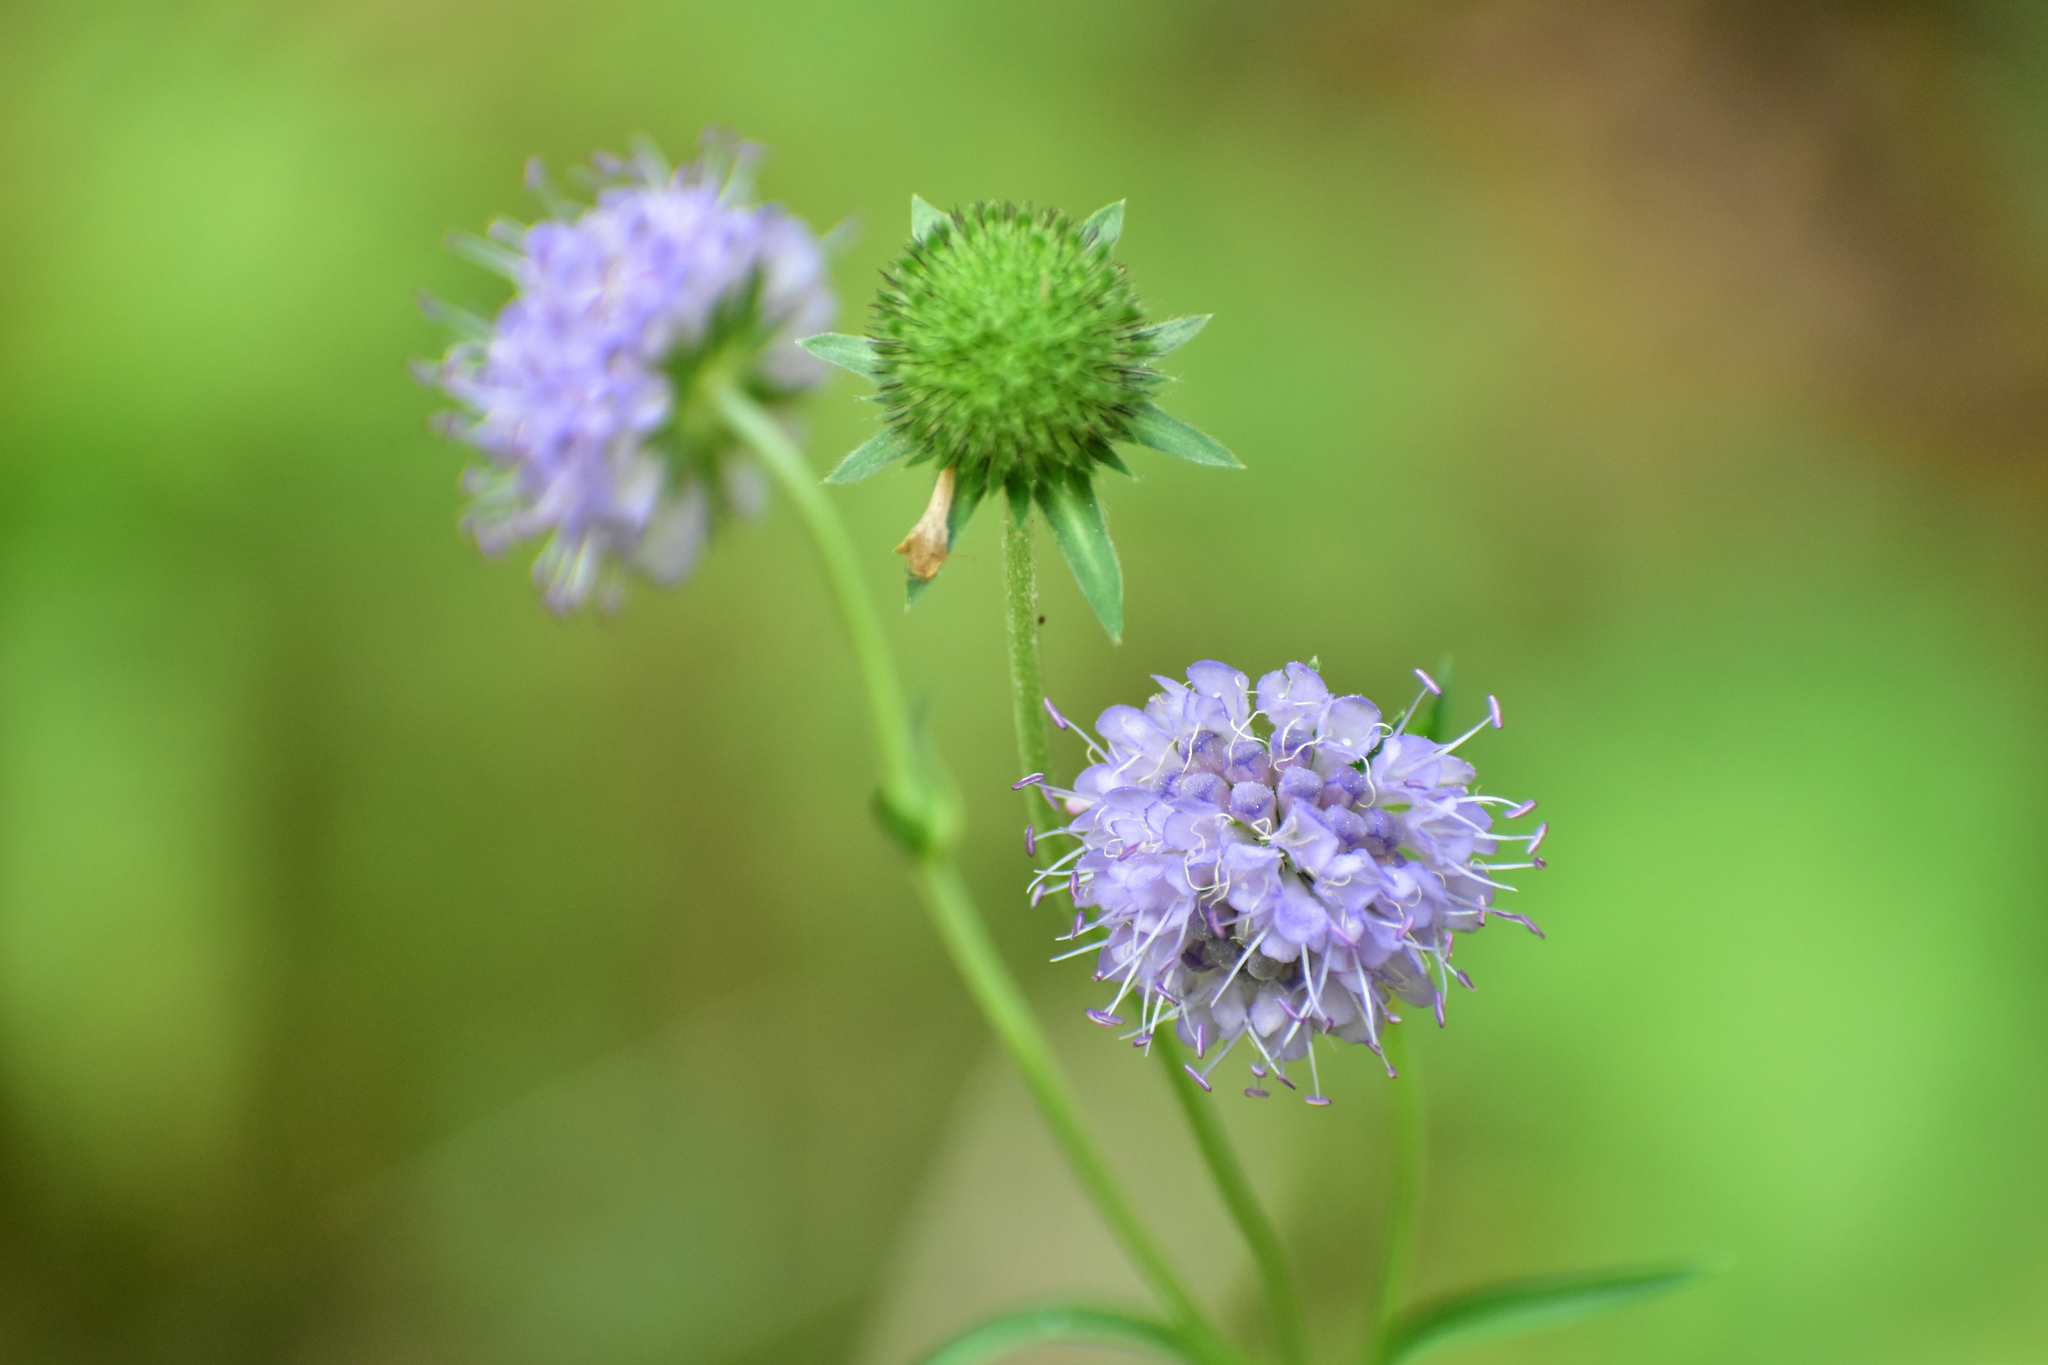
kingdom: Plantae
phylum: Tracheophyta
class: Magnoliopsida
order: Dipsacales
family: Caprifoliaceae
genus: Succisa
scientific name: Succisa pratensis
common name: Devil's-bit
